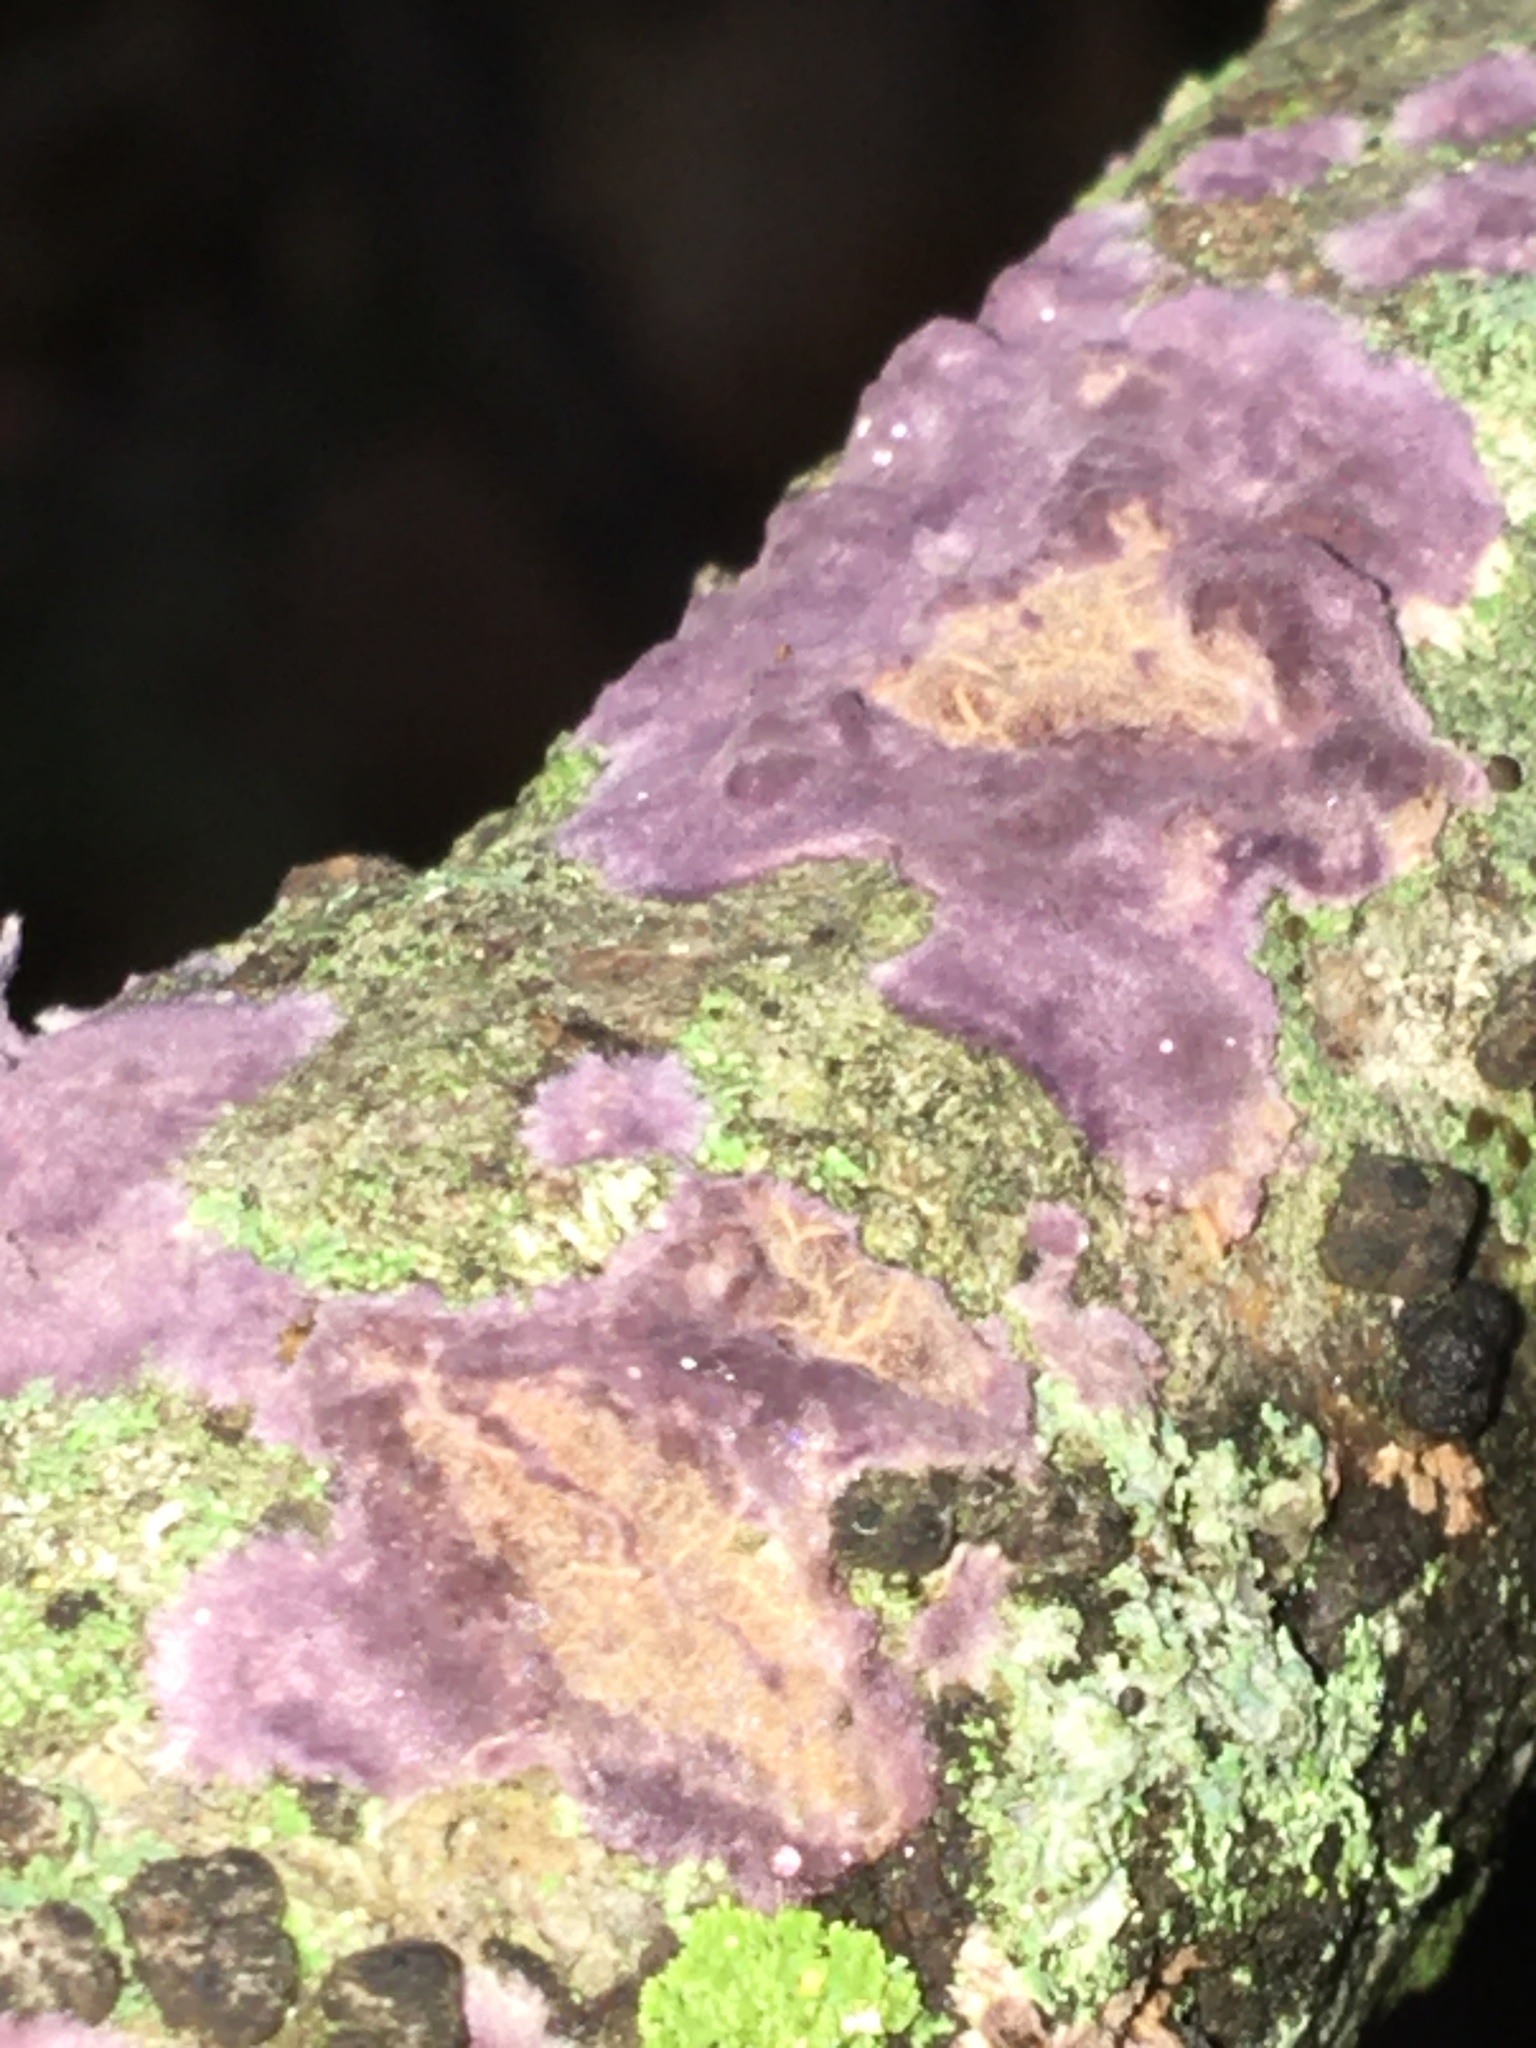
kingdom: Fungi
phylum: Basidiomycota
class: Agaricomycetes
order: Polyporales
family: Phanerochaetaceae
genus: Phlebiopsis
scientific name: Phlebiopsis crassa
